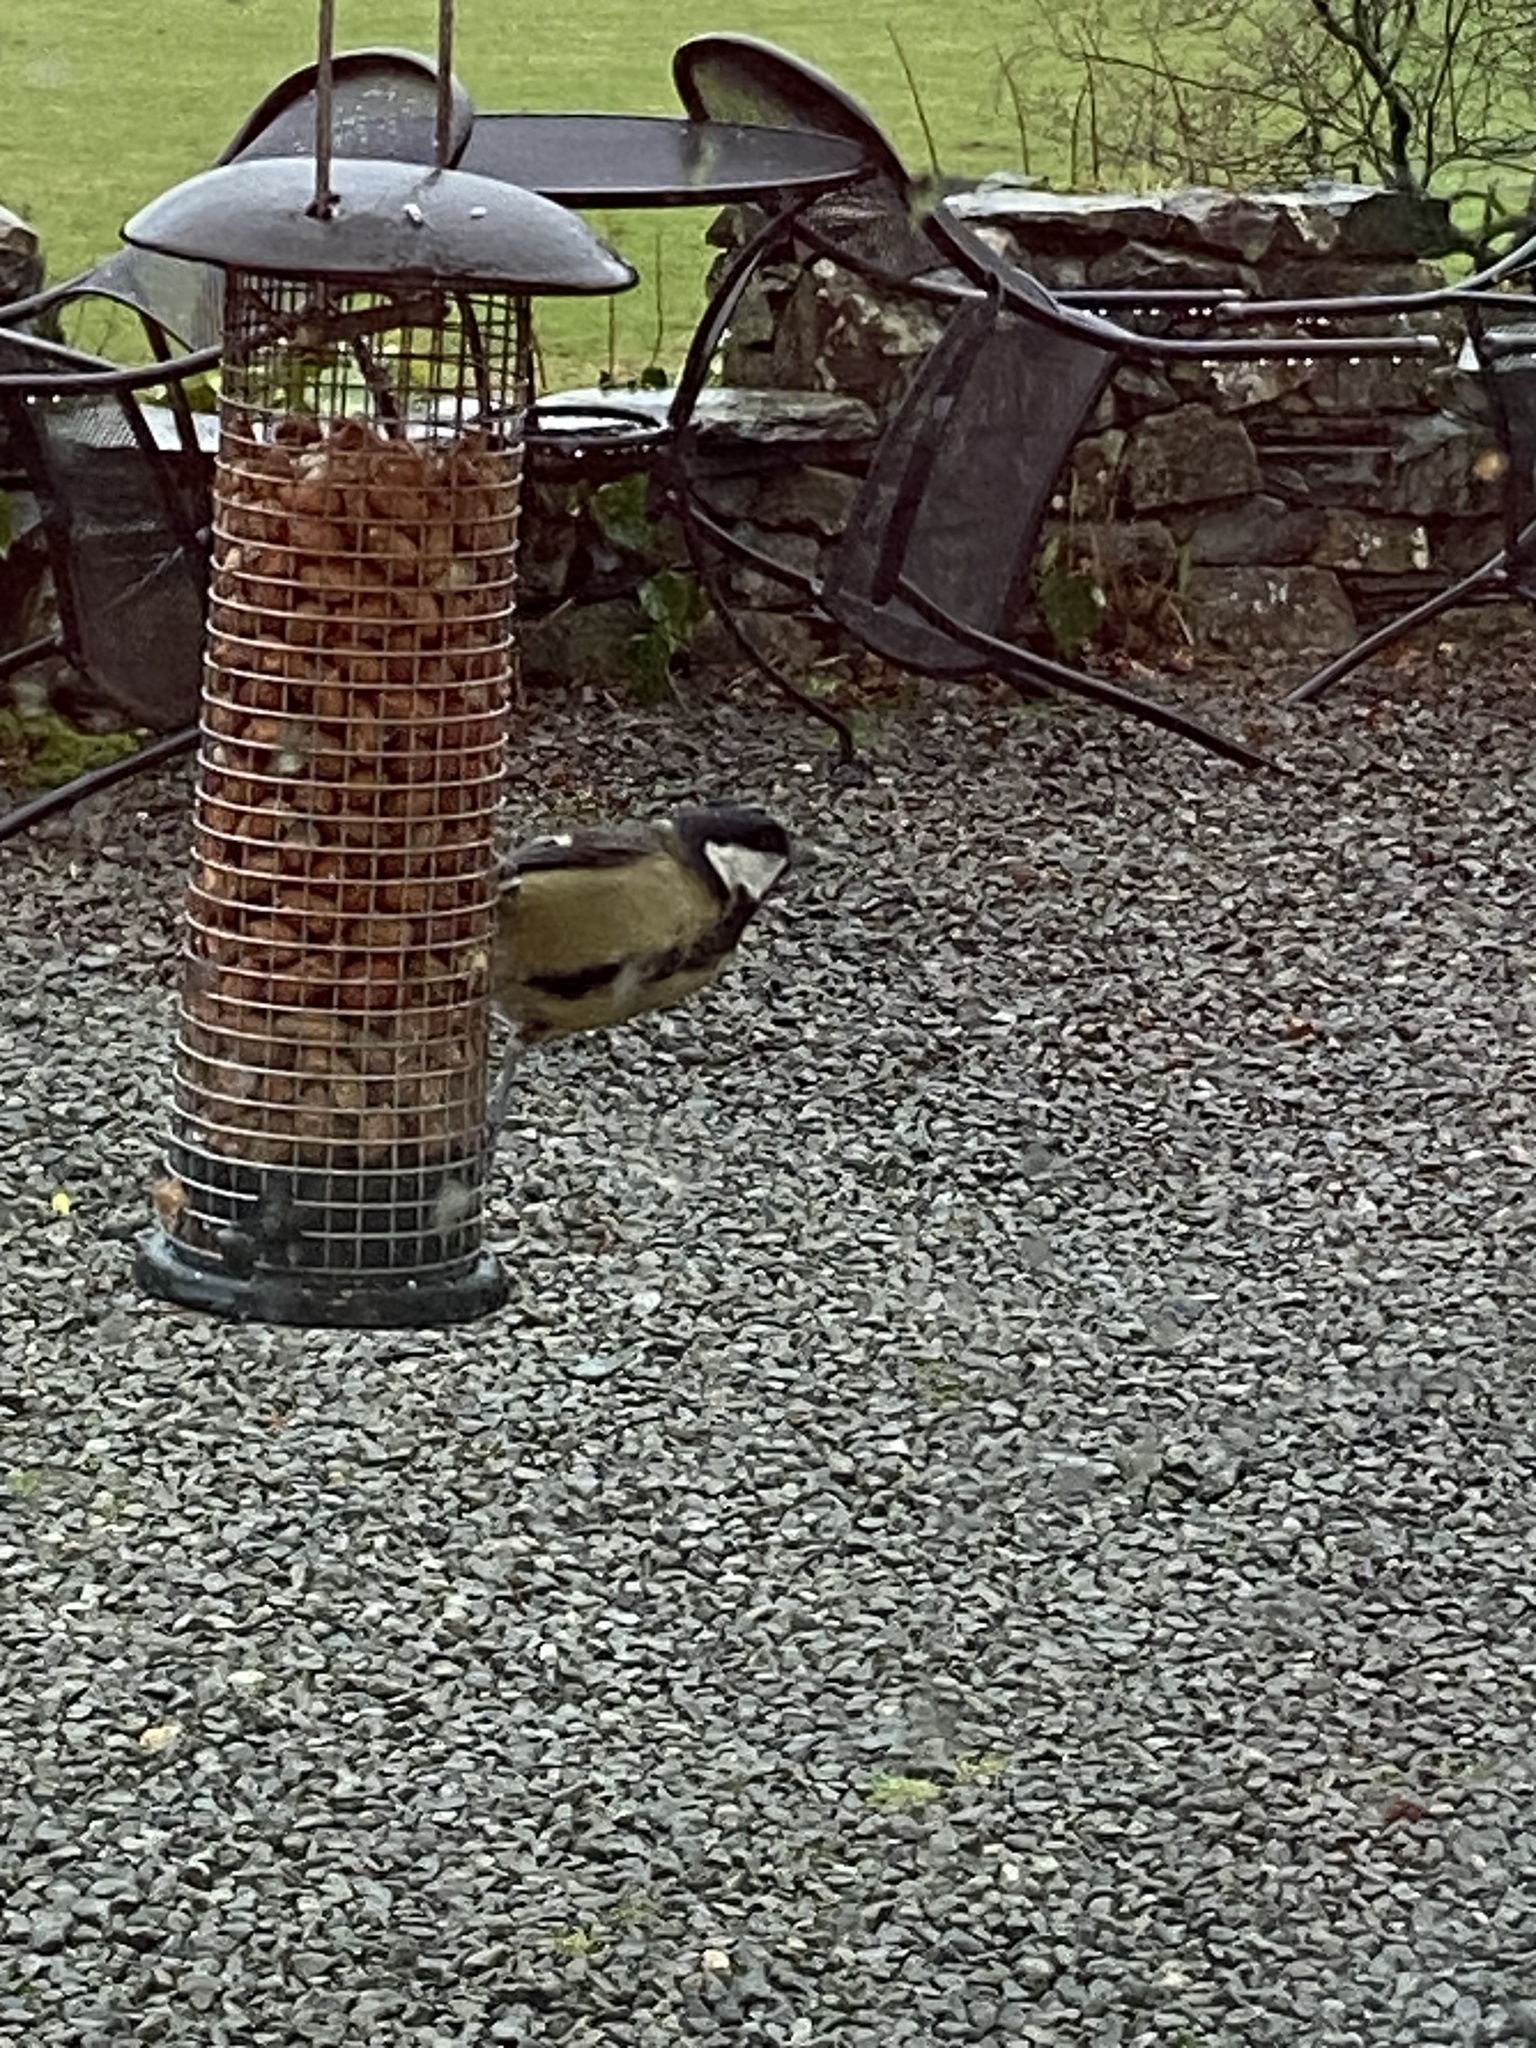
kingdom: Animalia
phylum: Chordata
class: Aves
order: Passeriformes
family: Paridae
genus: Parus
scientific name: Parus major
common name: Great tit
